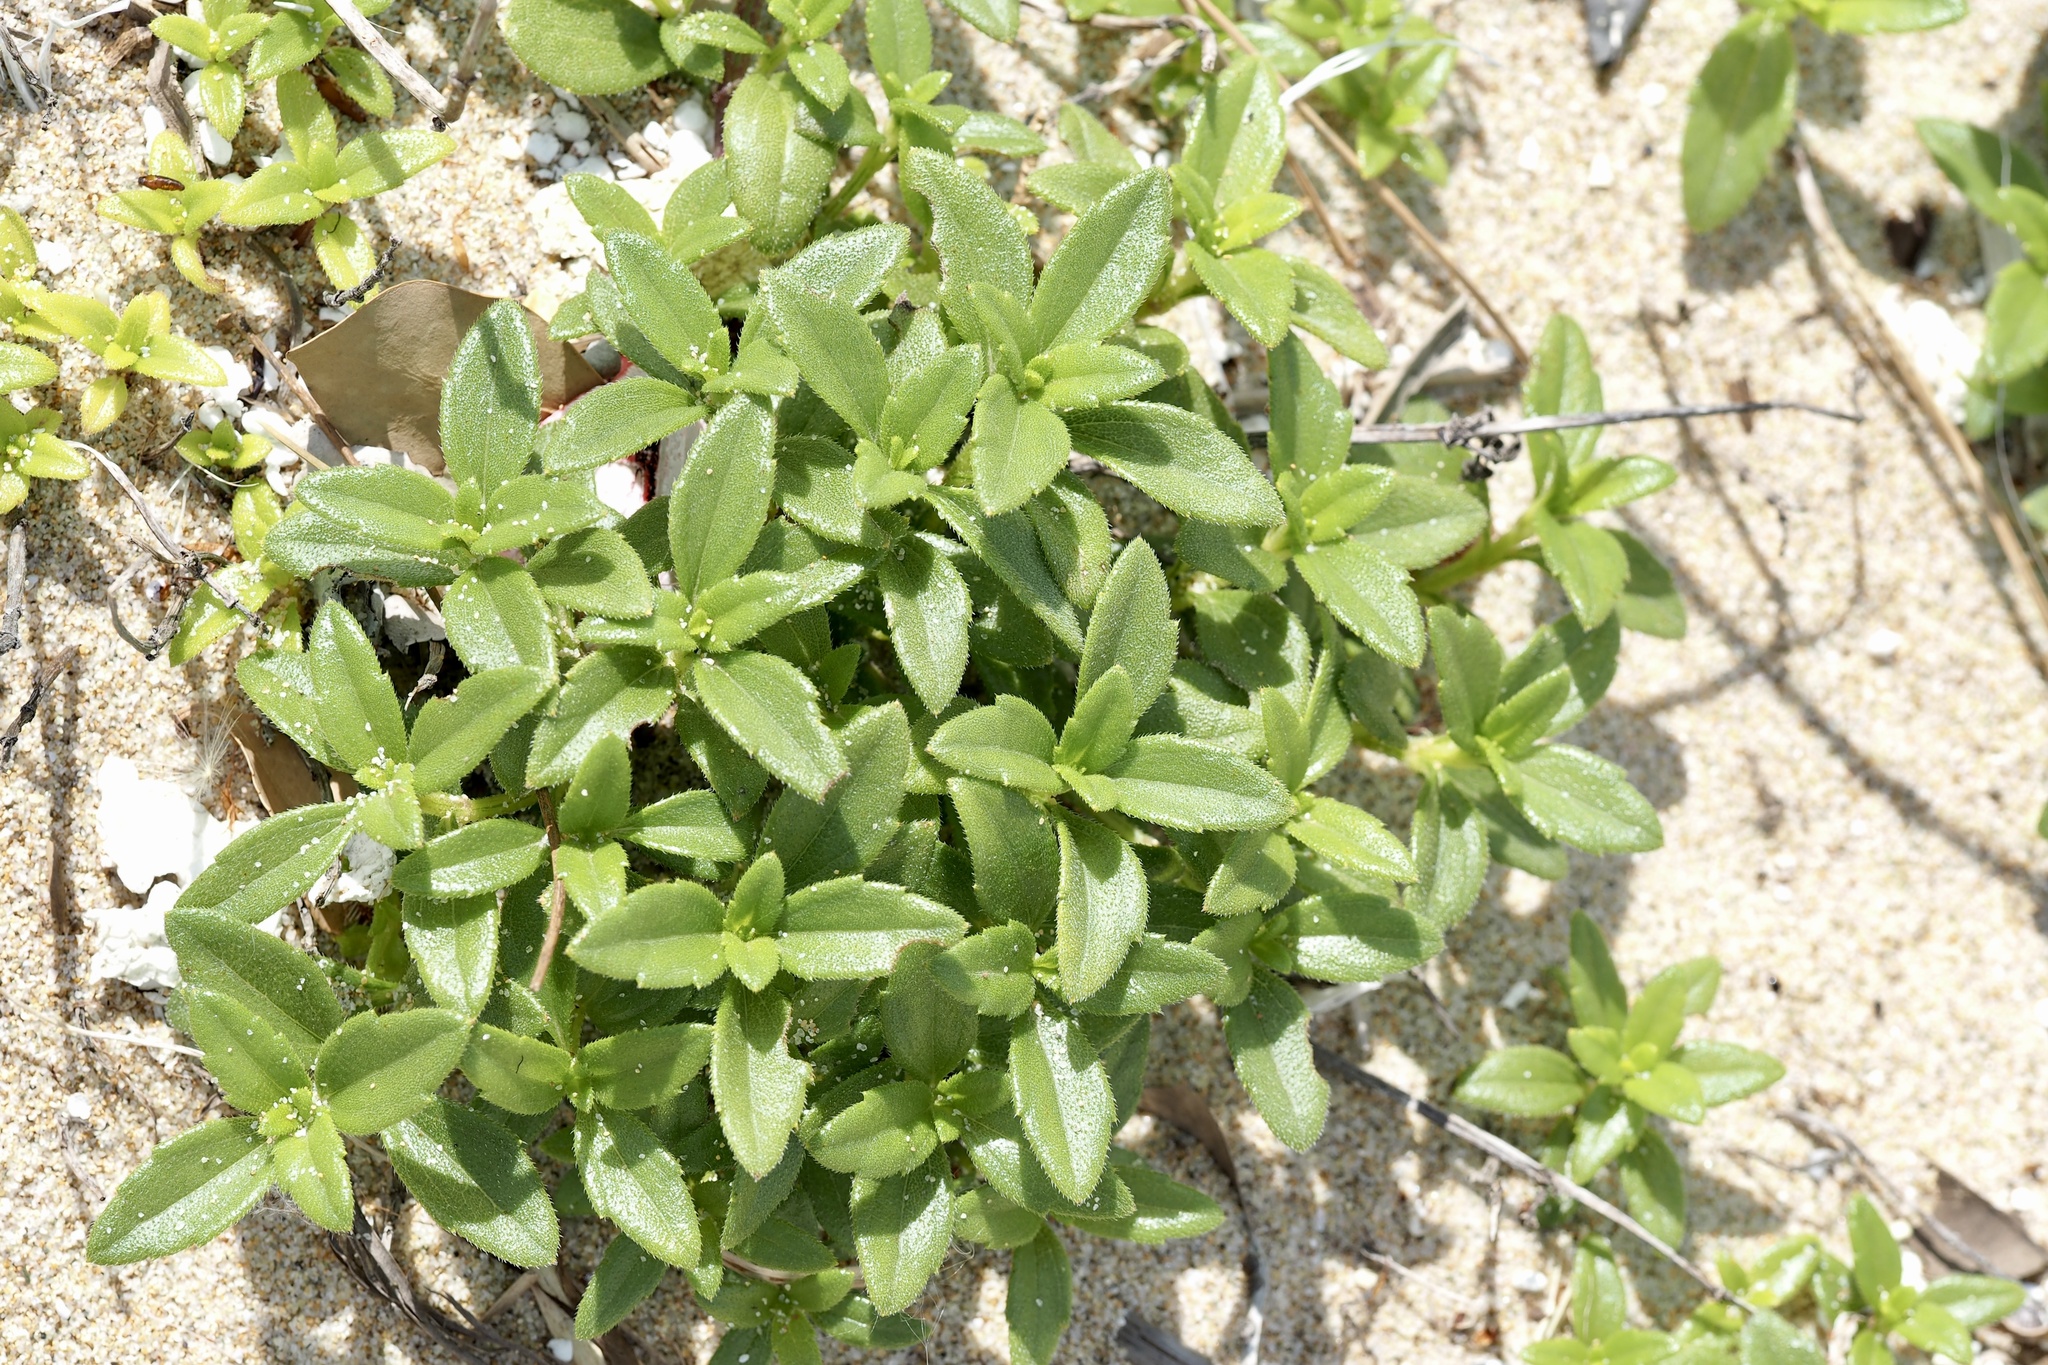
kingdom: Plantae
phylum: Tracheophyta
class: Magnoliopsida
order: Asterales
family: Asteraceae
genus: Melanthera
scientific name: Melanthera prostrata
